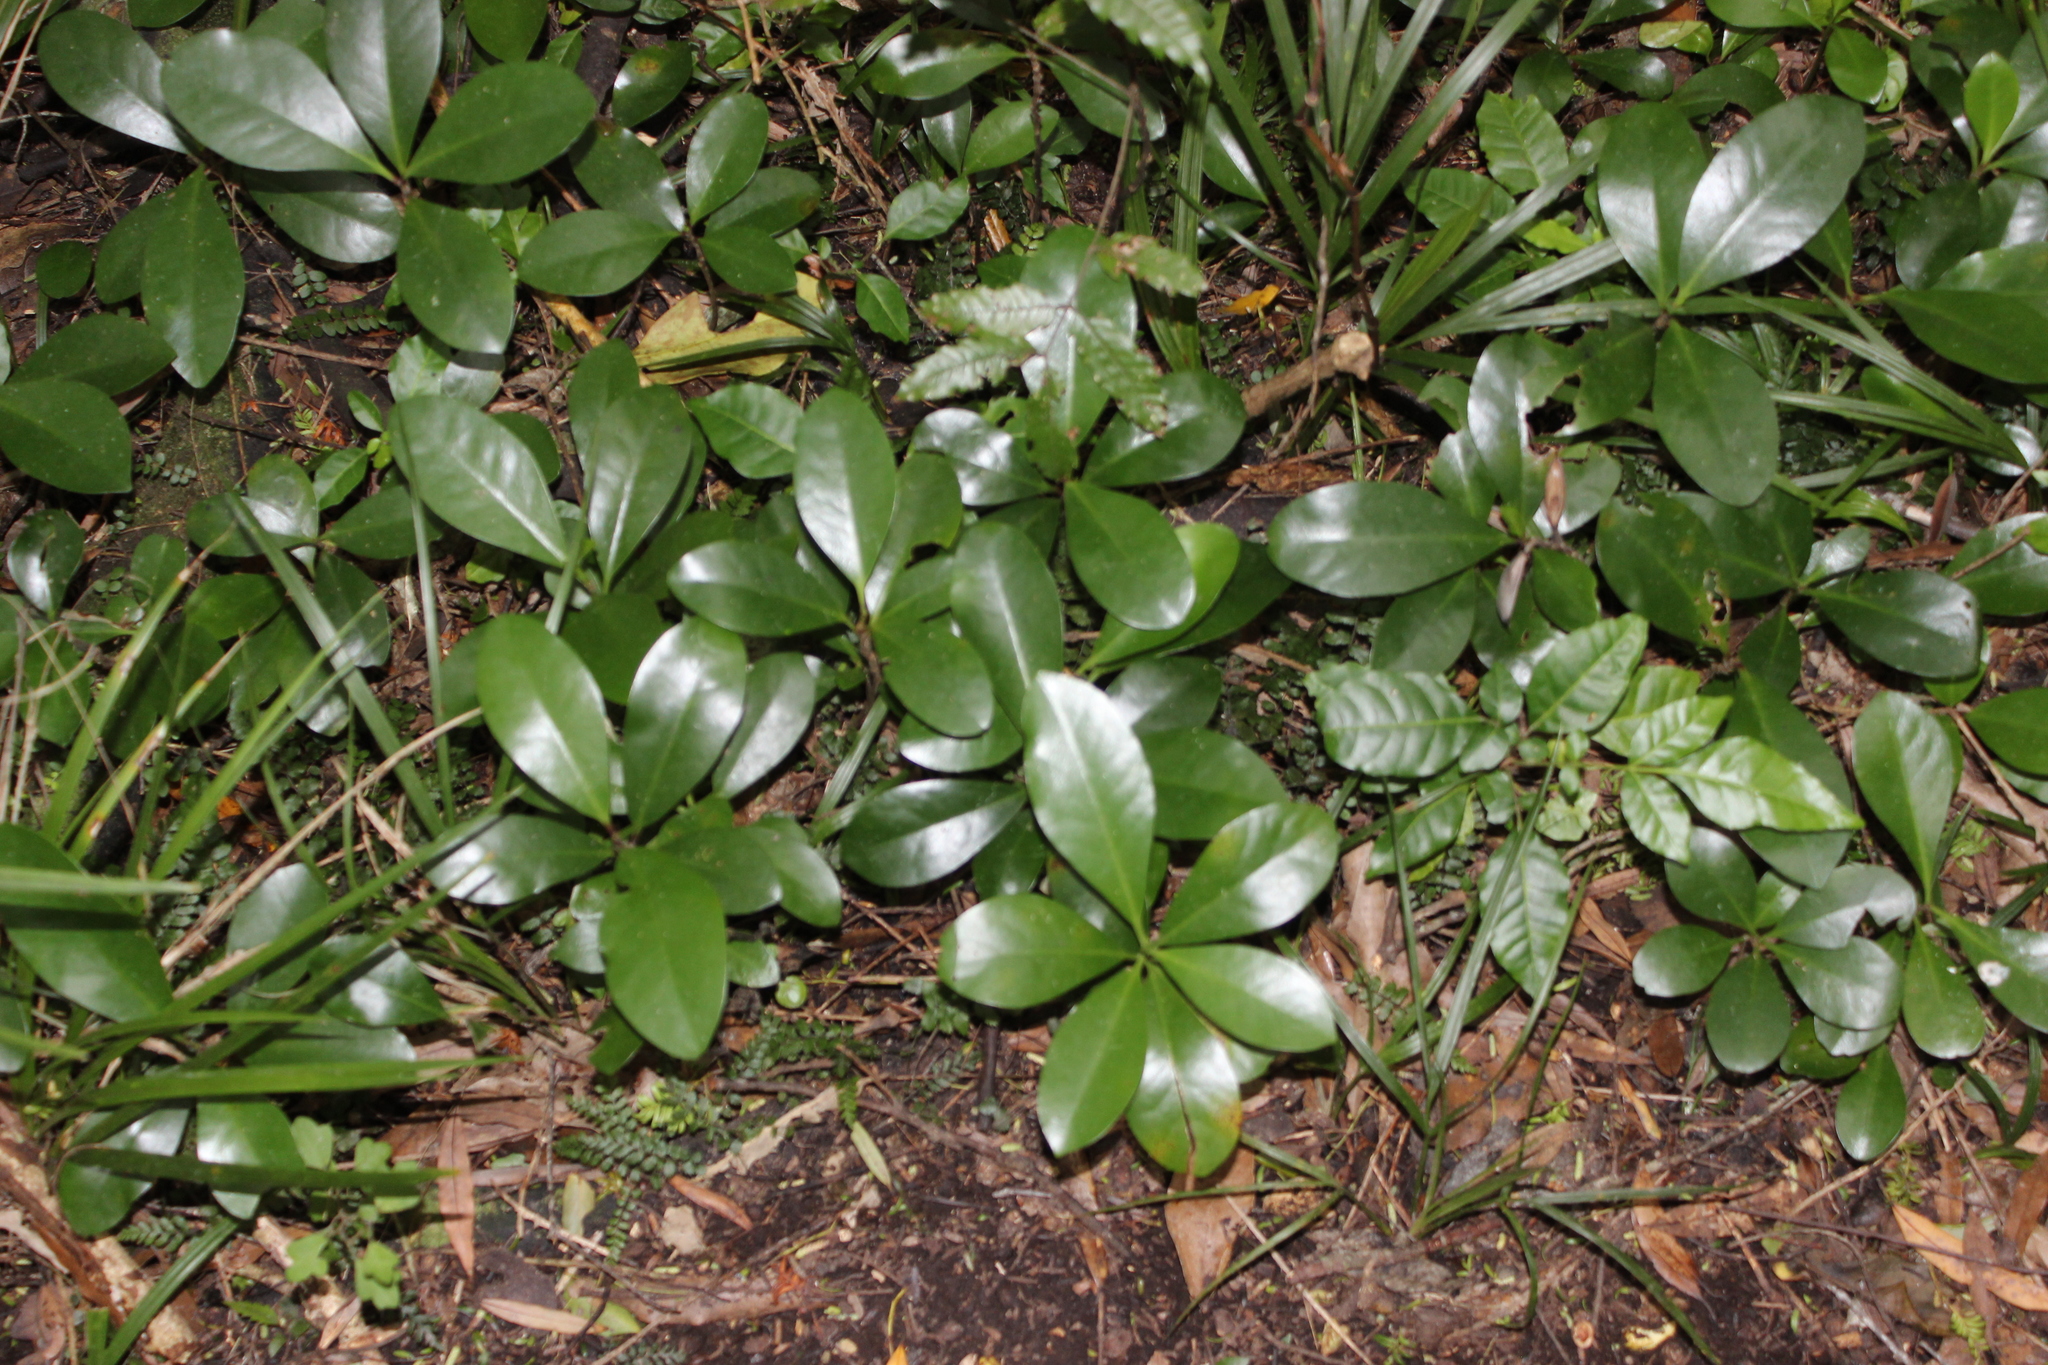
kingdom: Plantae
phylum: Tracheophyta
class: Magnoliopsida
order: Cucurbitales
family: Corynocarpaceae
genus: Corynocarpus
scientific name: Corynocarpus laevigatus
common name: New zealand laurel
